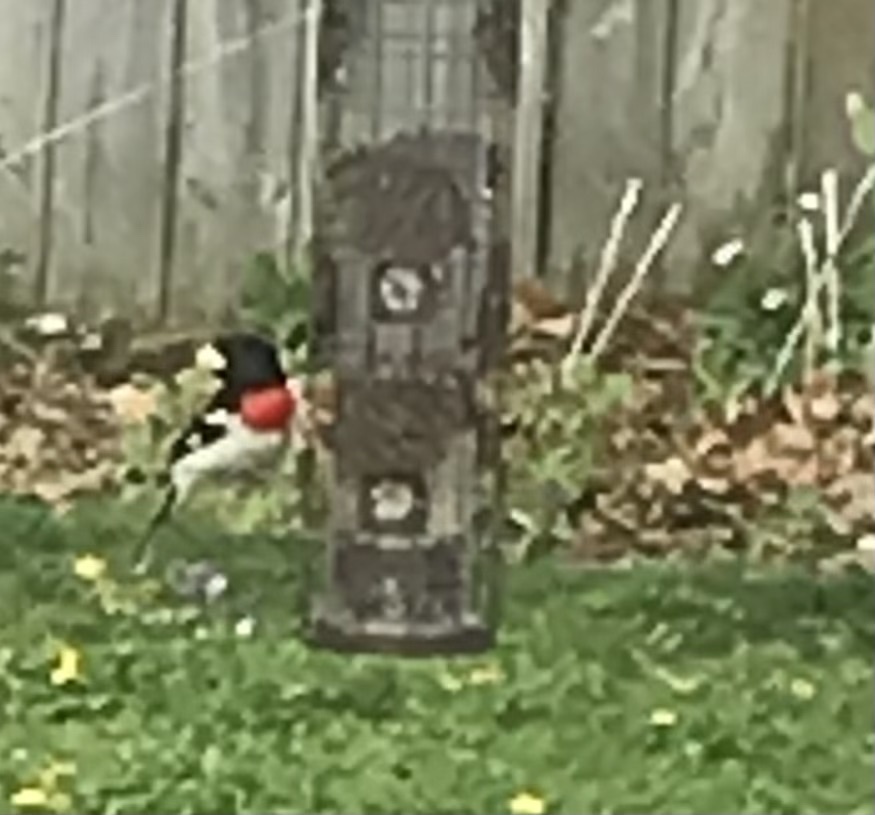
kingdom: Animalia
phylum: Chordata
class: Aves
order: Passeriformes
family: Cardinalidae
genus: Pheucticus
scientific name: Pheucticus ludovicianus
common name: Rose-breasted grosbeak
